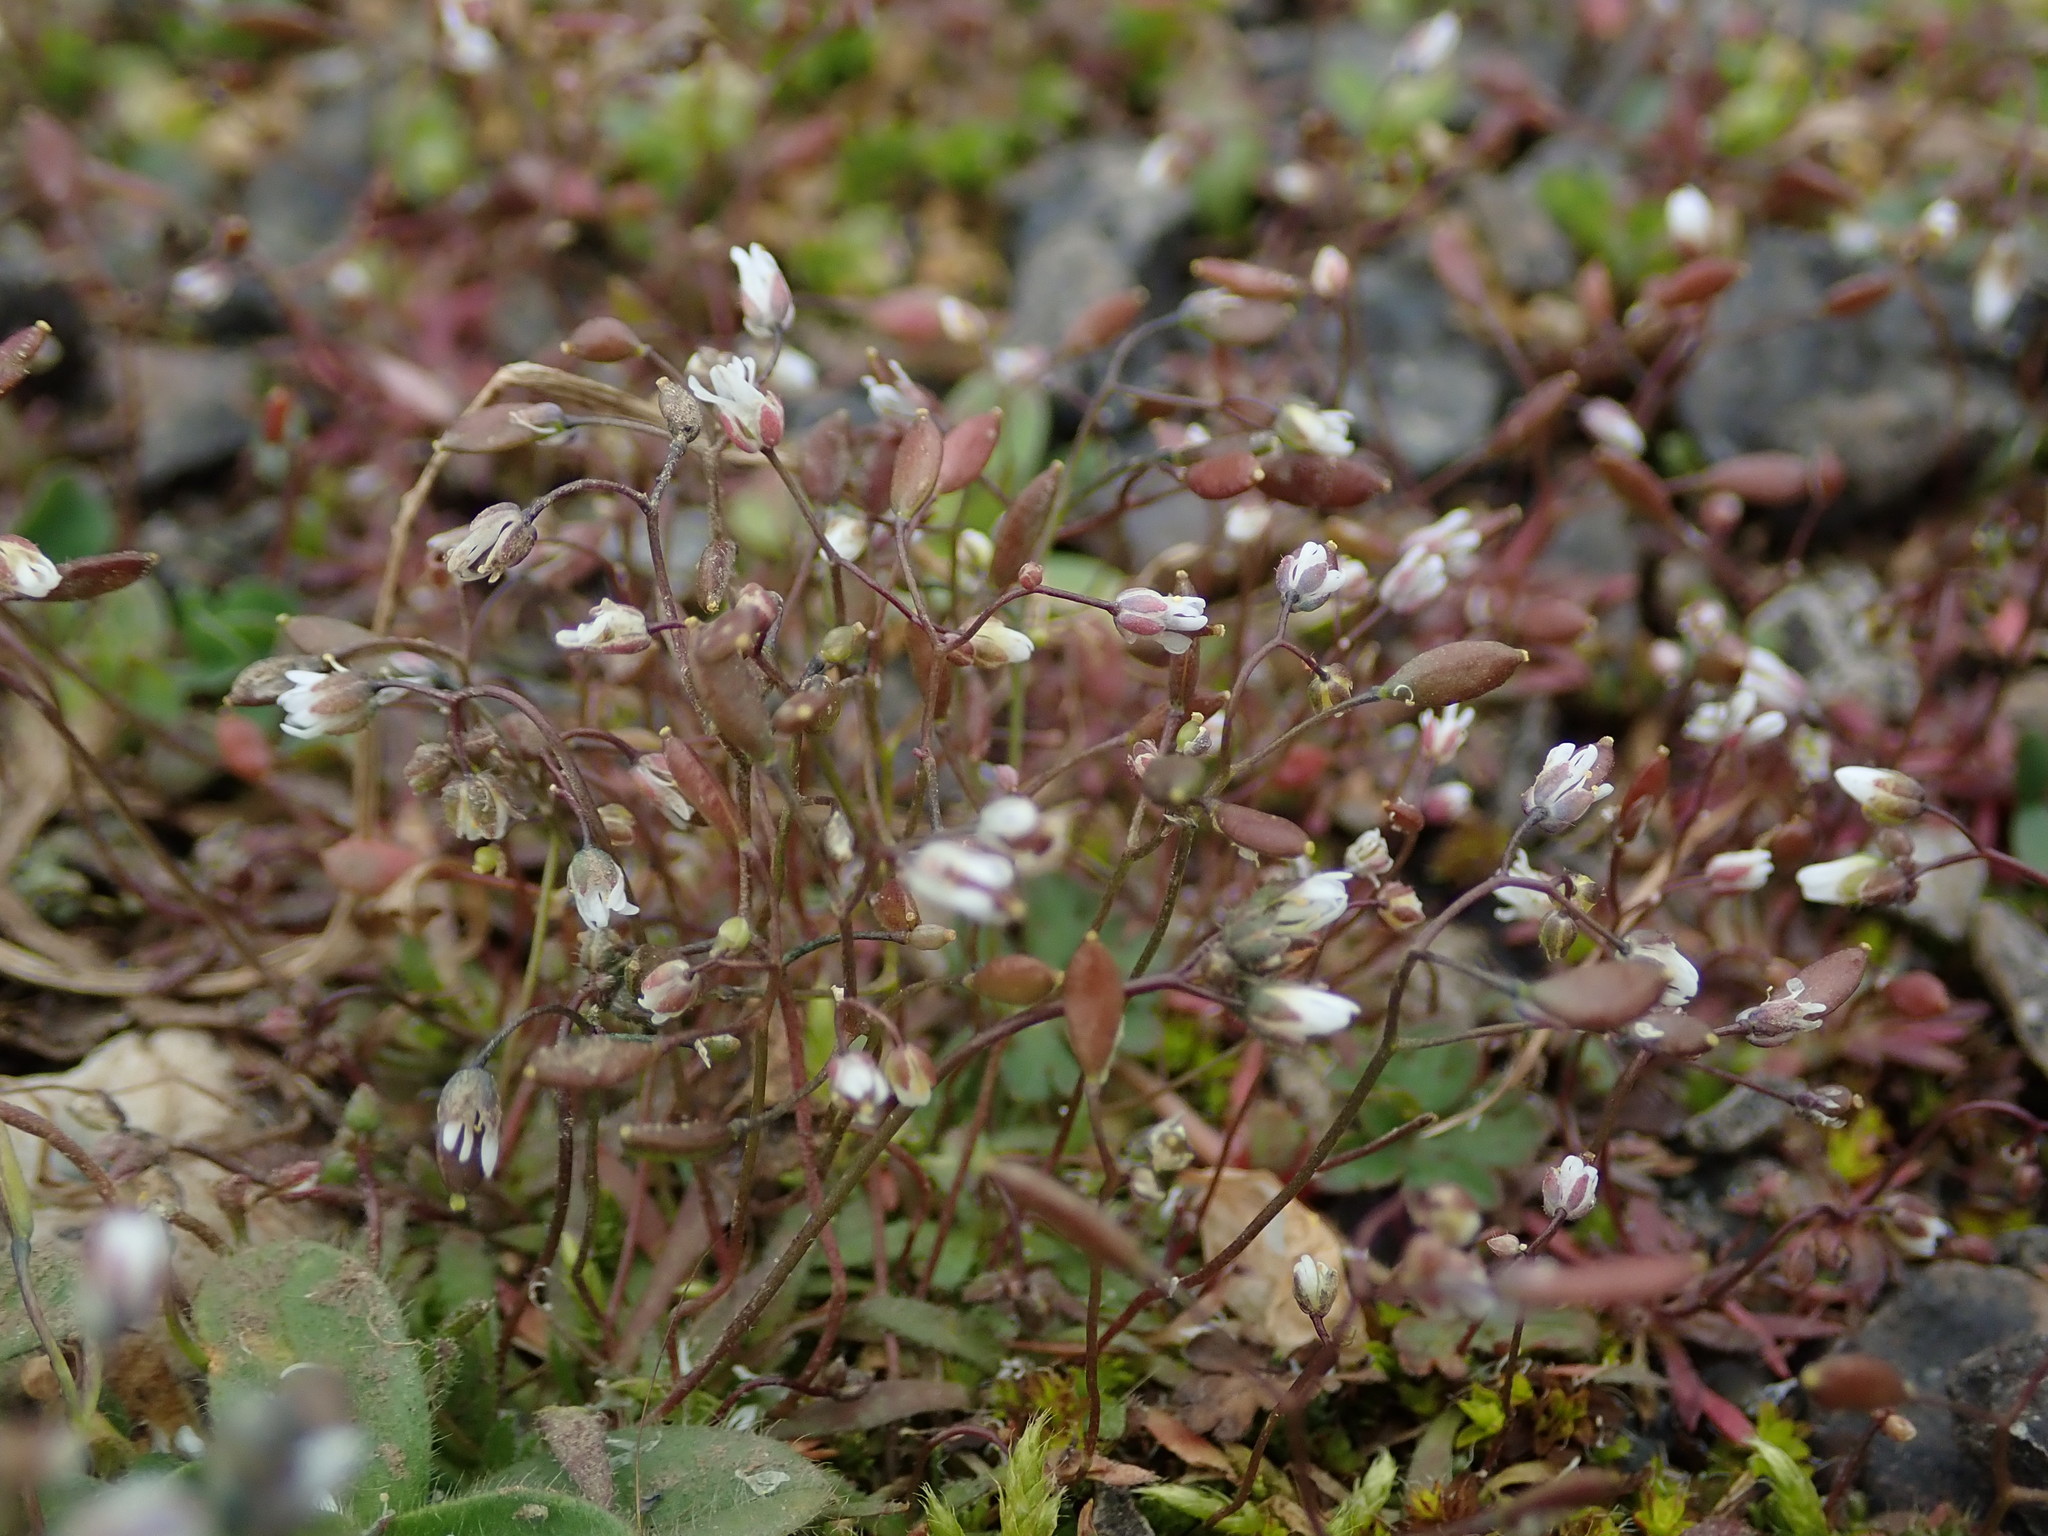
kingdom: Plantae
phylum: Tracheophyta
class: Magnoliopsida
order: Brassicales
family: Brassicaceae
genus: Draba
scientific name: Draba verna
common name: Spring draba
